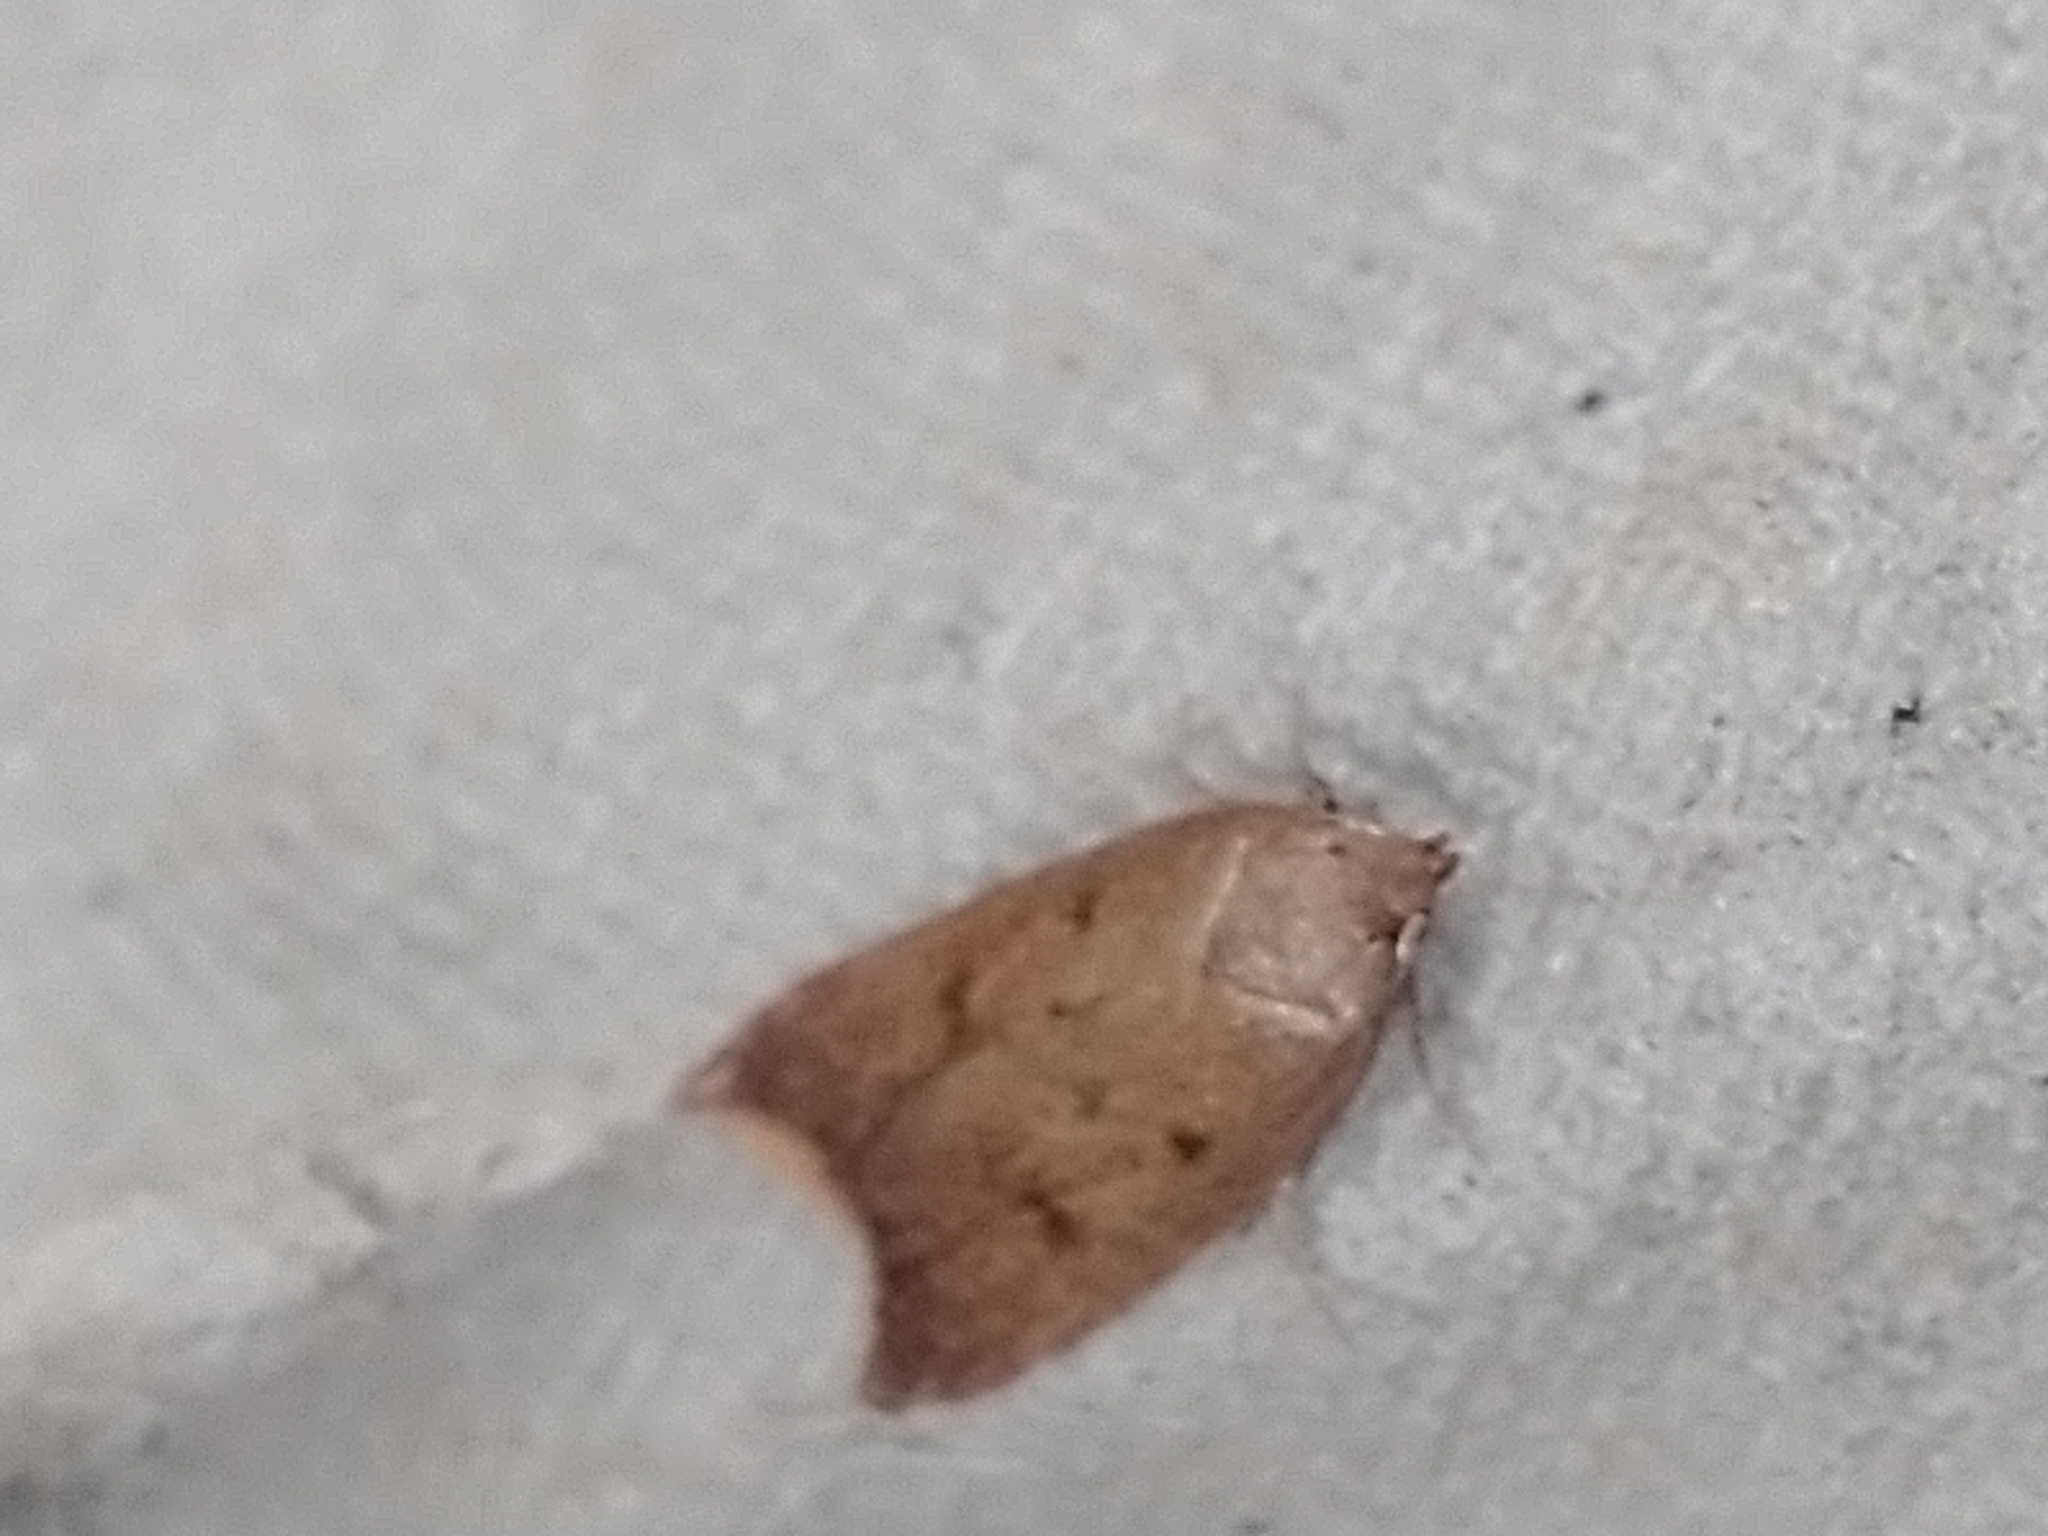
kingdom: Animalia
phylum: Arthropoda
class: Insecta
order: Lepidoptera
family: Oecophoridae
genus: Tachystola
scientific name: Tachystola acroxantha
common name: Ruddy streak
